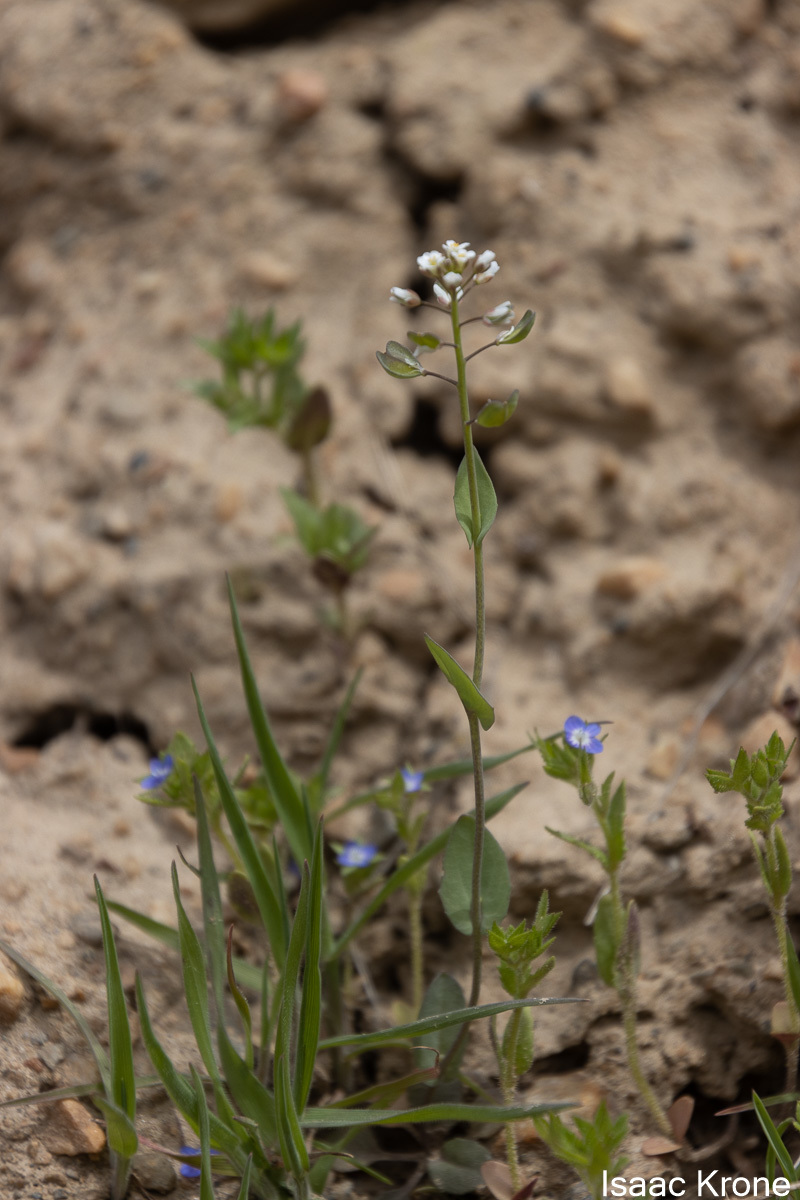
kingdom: Plantae
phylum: Tracheophyta
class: Magnoliopsida
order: Brassicales
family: Brassicaceae
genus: Noccaea
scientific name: Noccaea perfoliata
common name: Perfoliate pennycress
